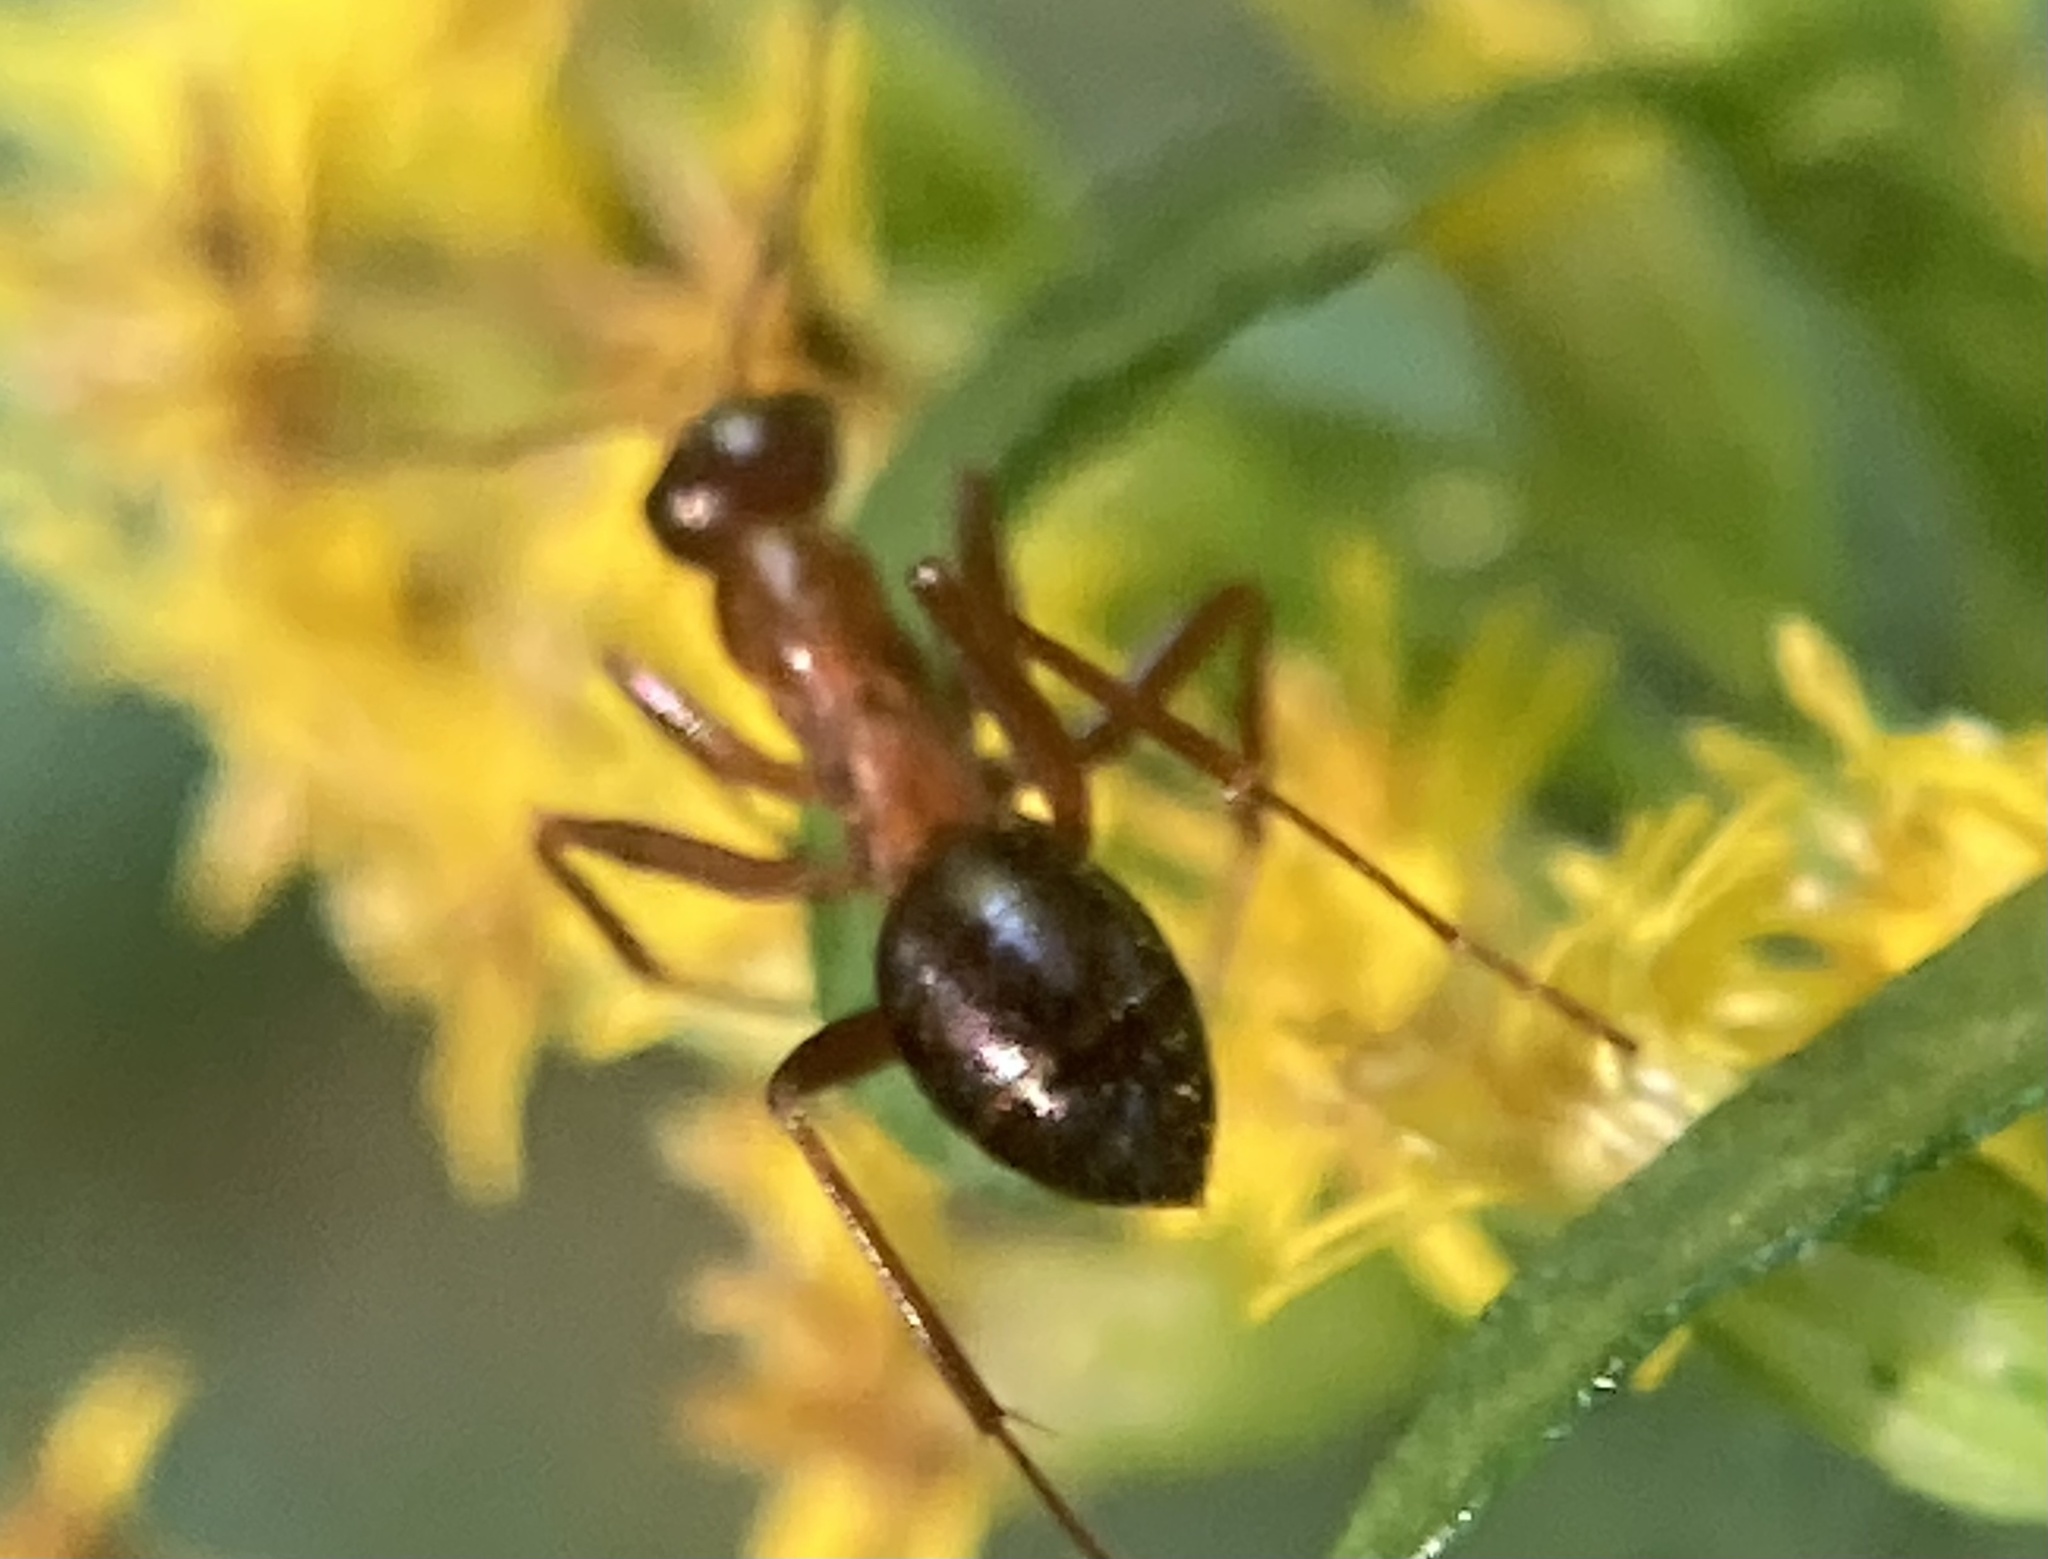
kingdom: Animalia
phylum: Arthropoda
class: Insecta
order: Hymenoptera
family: Formicidae
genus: Formica
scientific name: Formica
